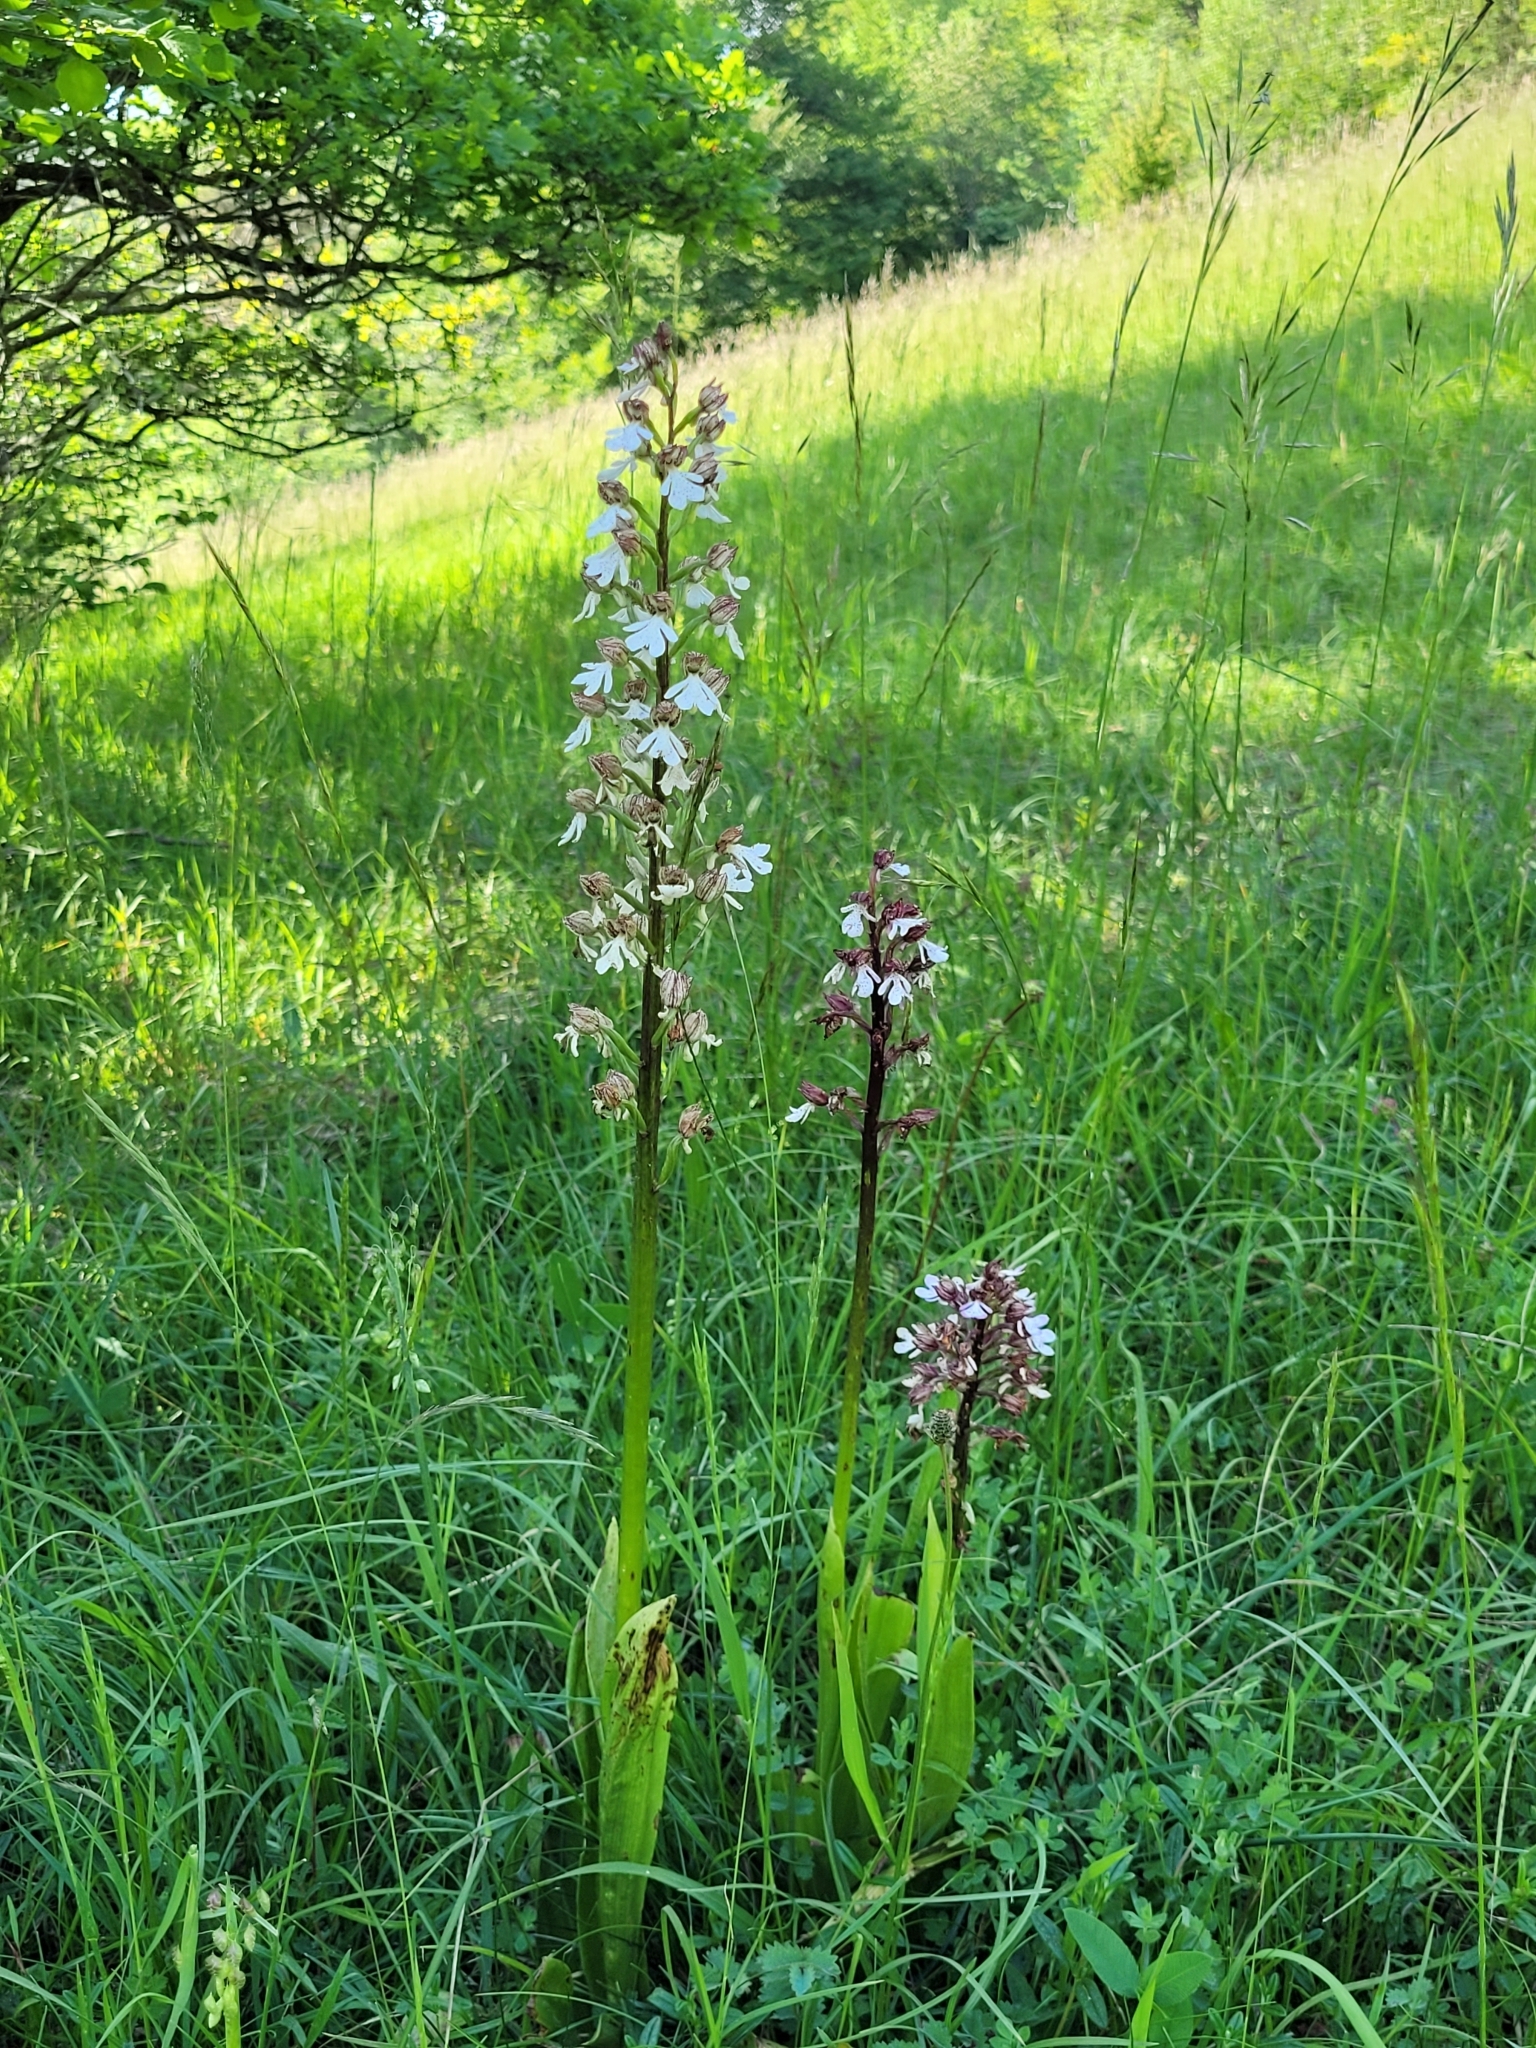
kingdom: Plantae
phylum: Tracheophyta
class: Liliopsida
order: Asparagales
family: Orchidaceae
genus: Orchis
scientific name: Orchis purpurea
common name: Lady orchid
